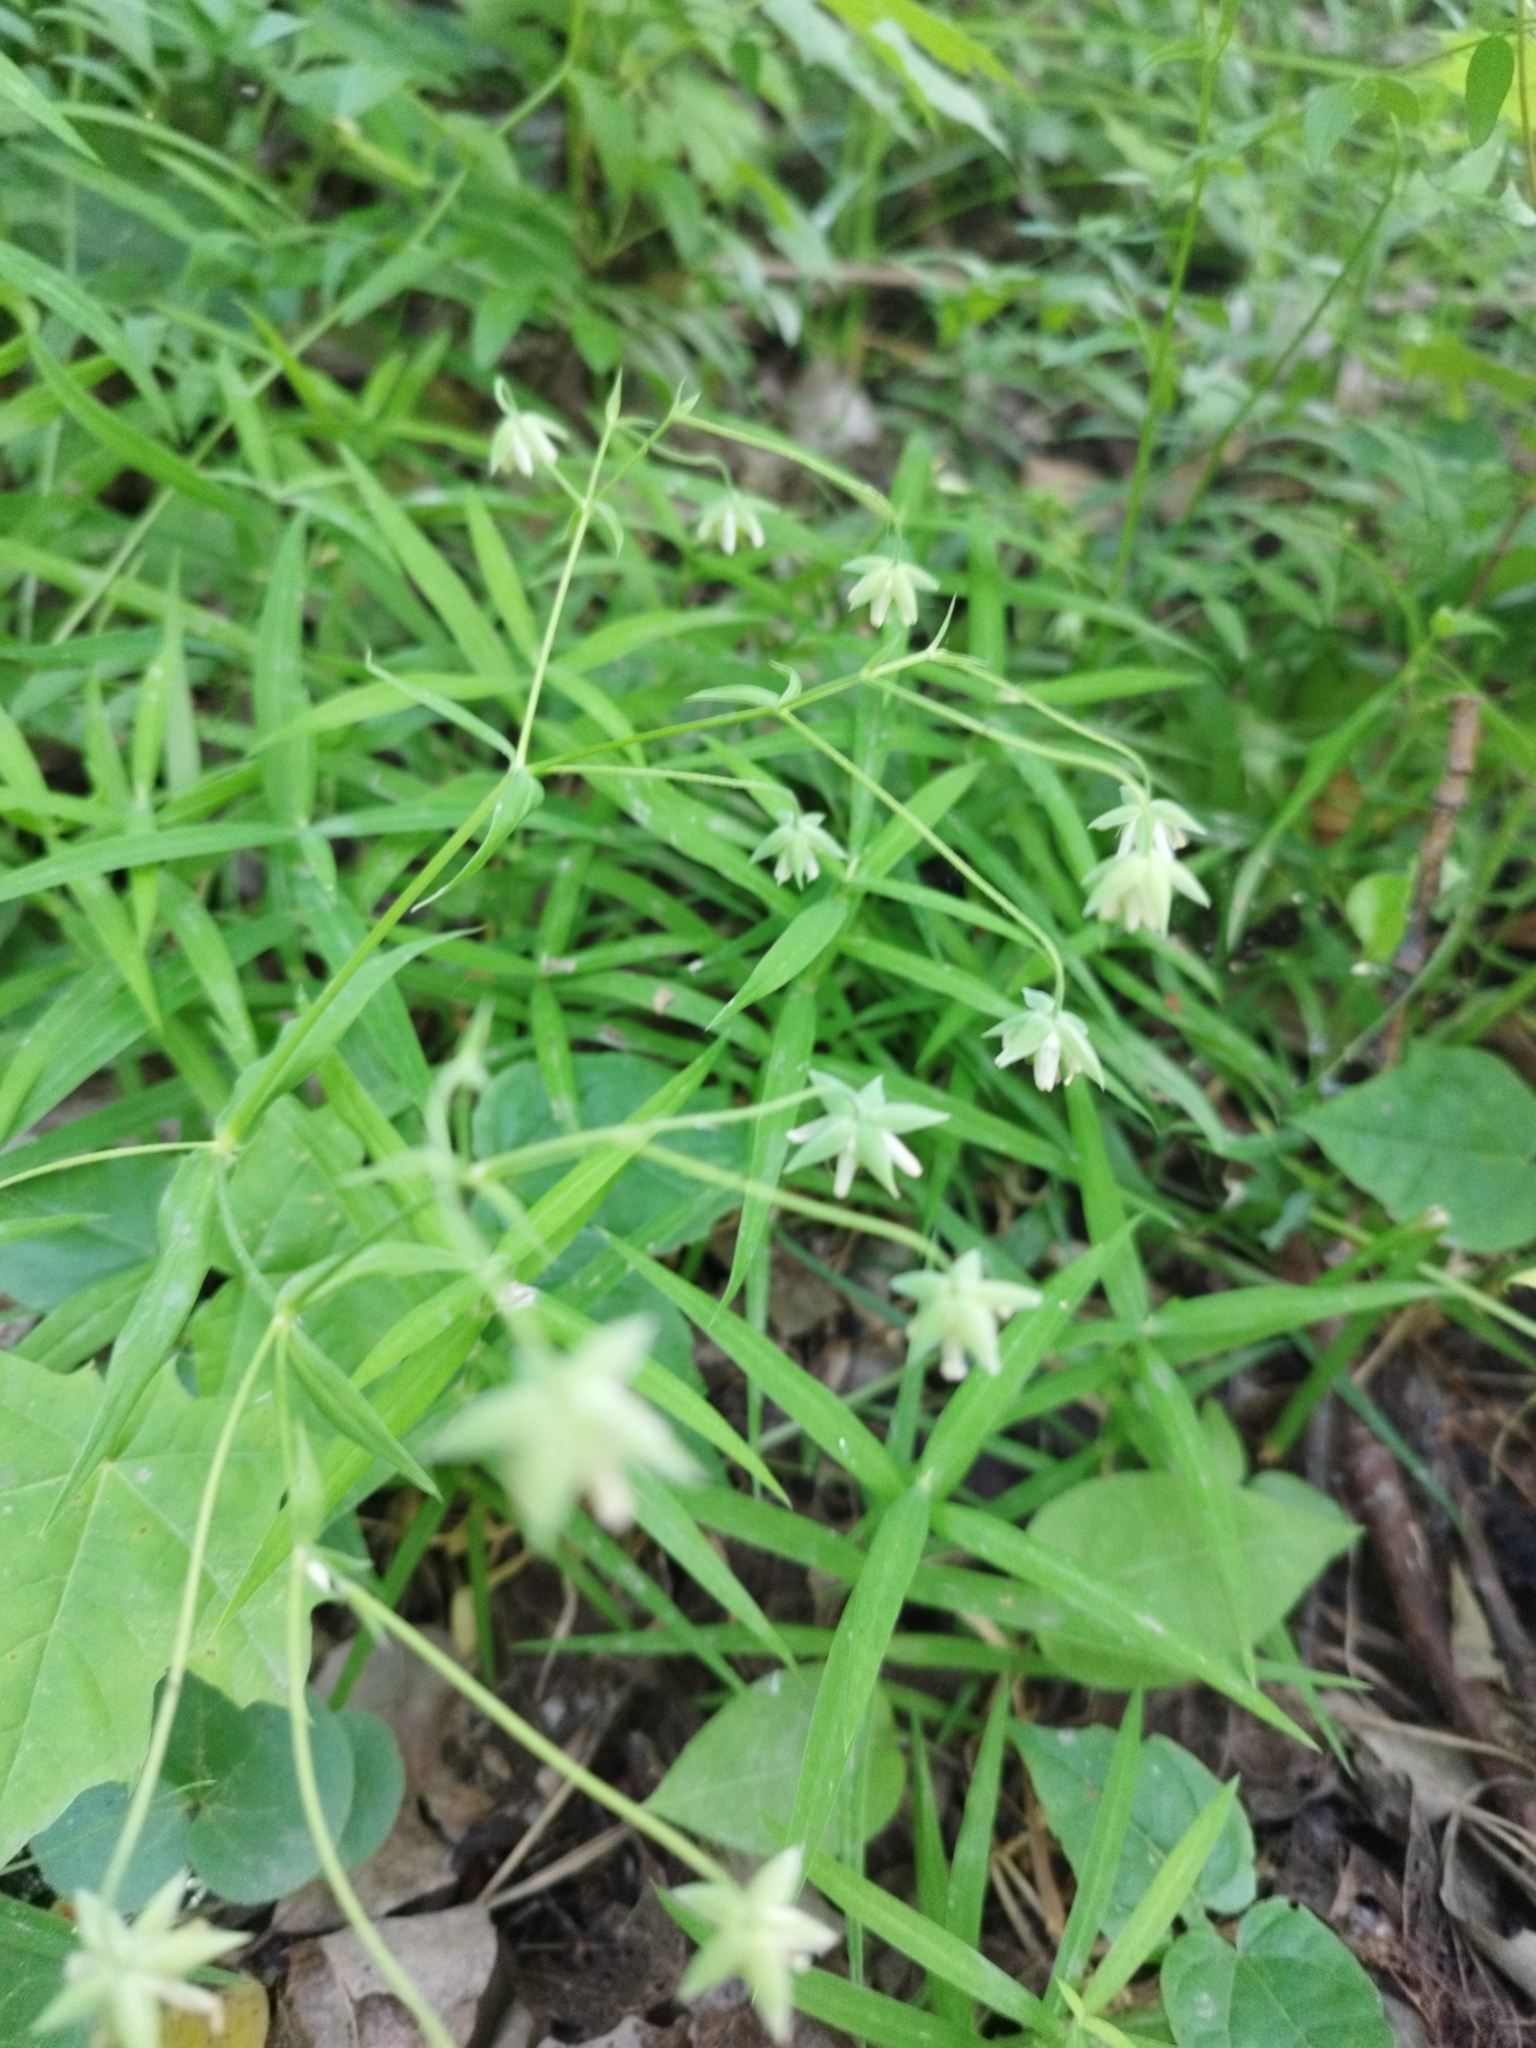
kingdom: Plantae
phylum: Tracheophyta
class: Magnoliopsida
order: Caryophyllales
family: Caryophyllaceae
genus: Rabelera
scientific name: Rabelera holostea
